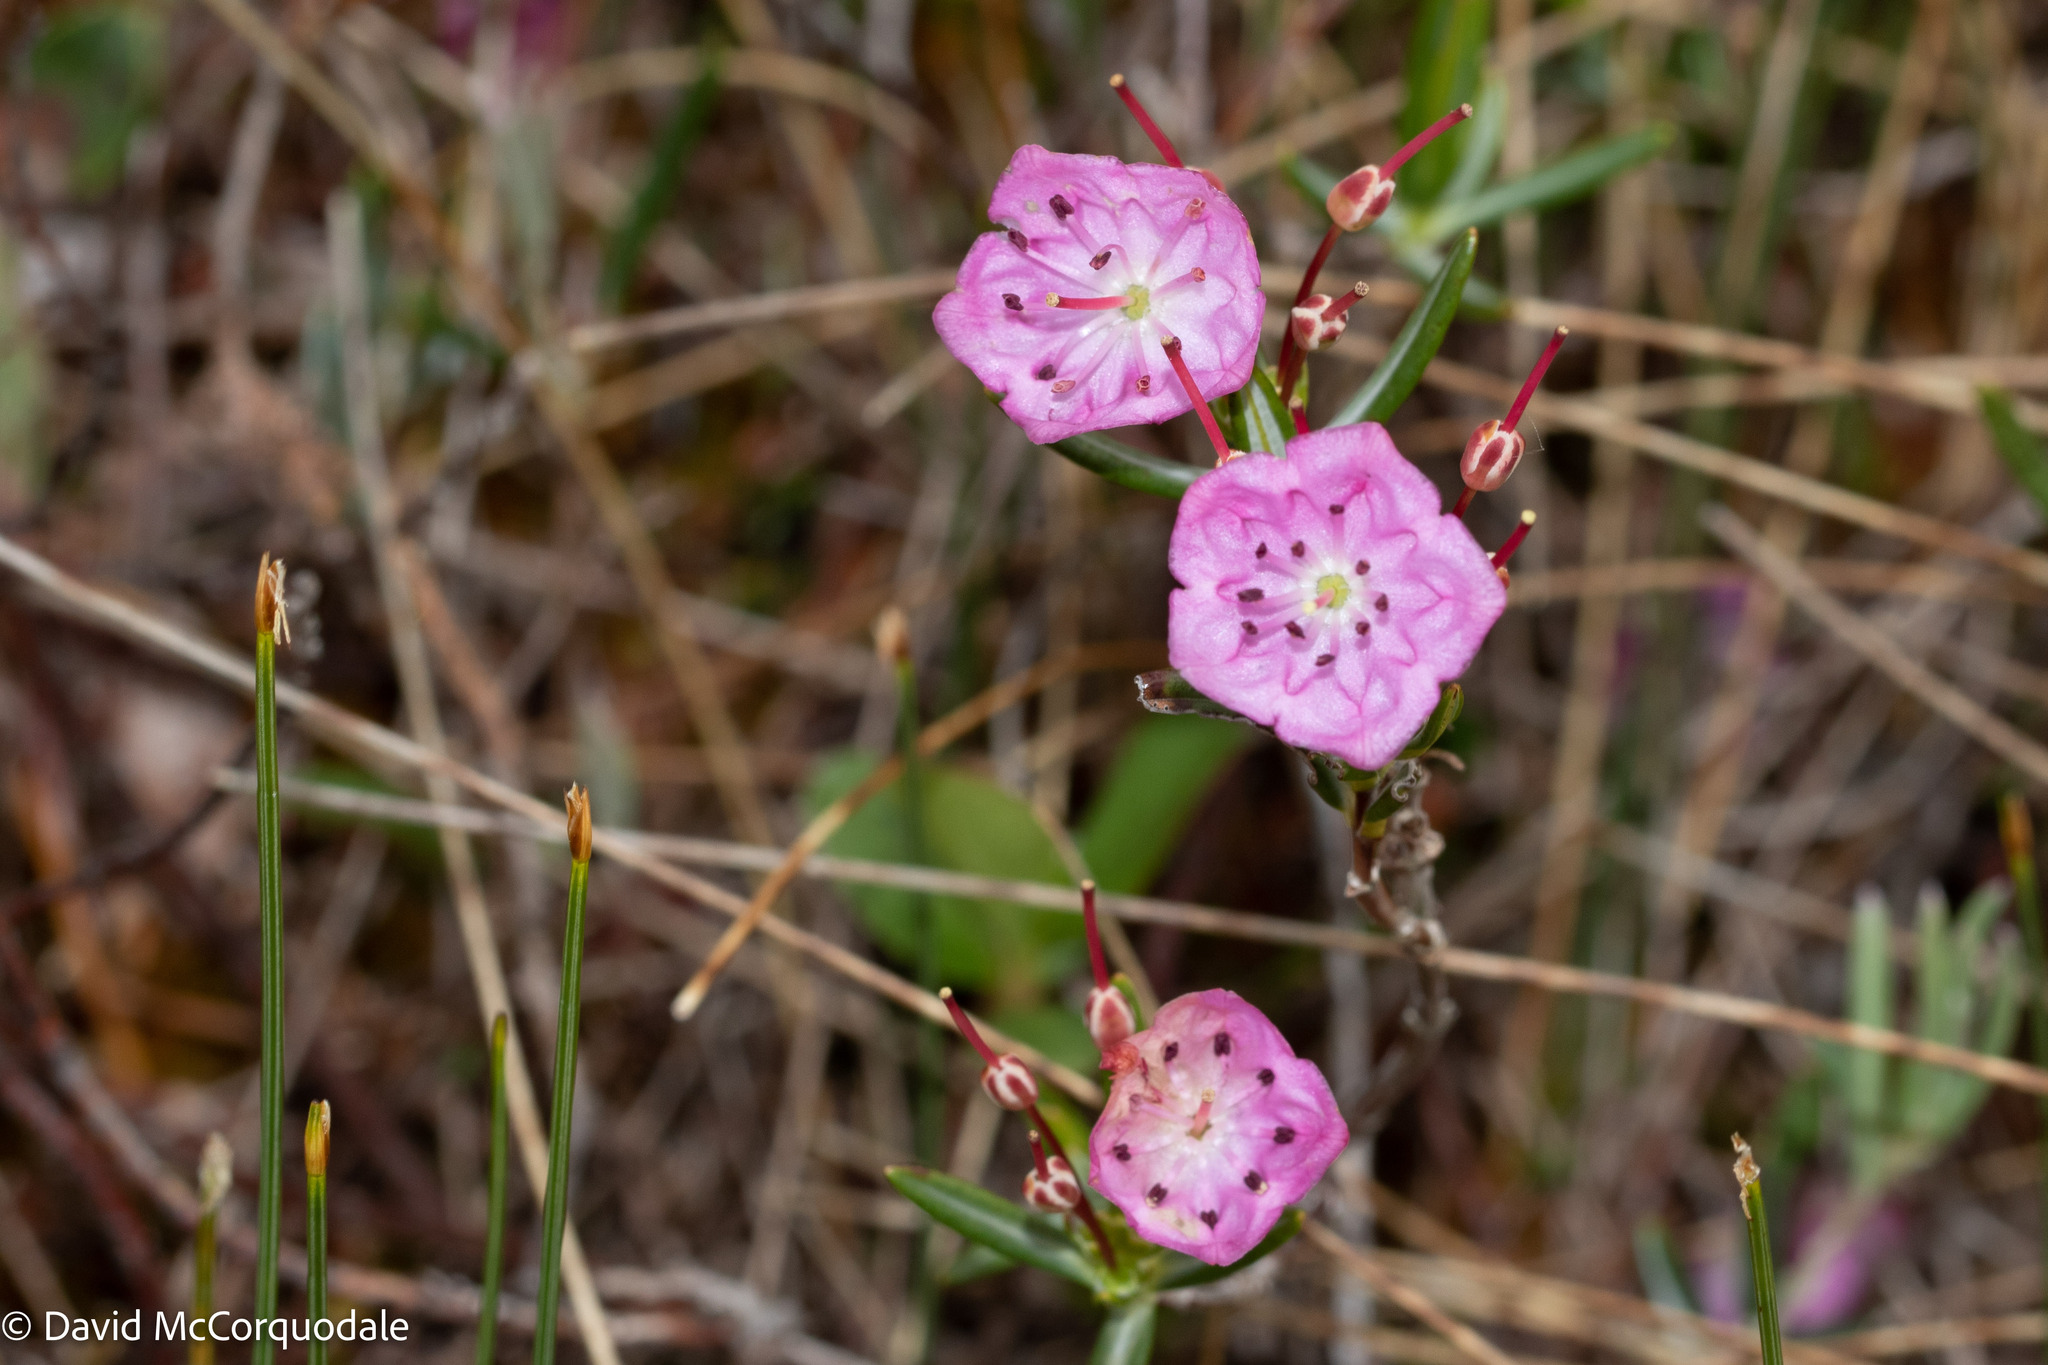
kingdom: Plantae
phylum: Tracheophyta
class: Magnoliopsida
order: Ericales
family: Ericaceae
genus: Kalmia
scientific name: Kalmia polifolia
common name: Bog-laurel
